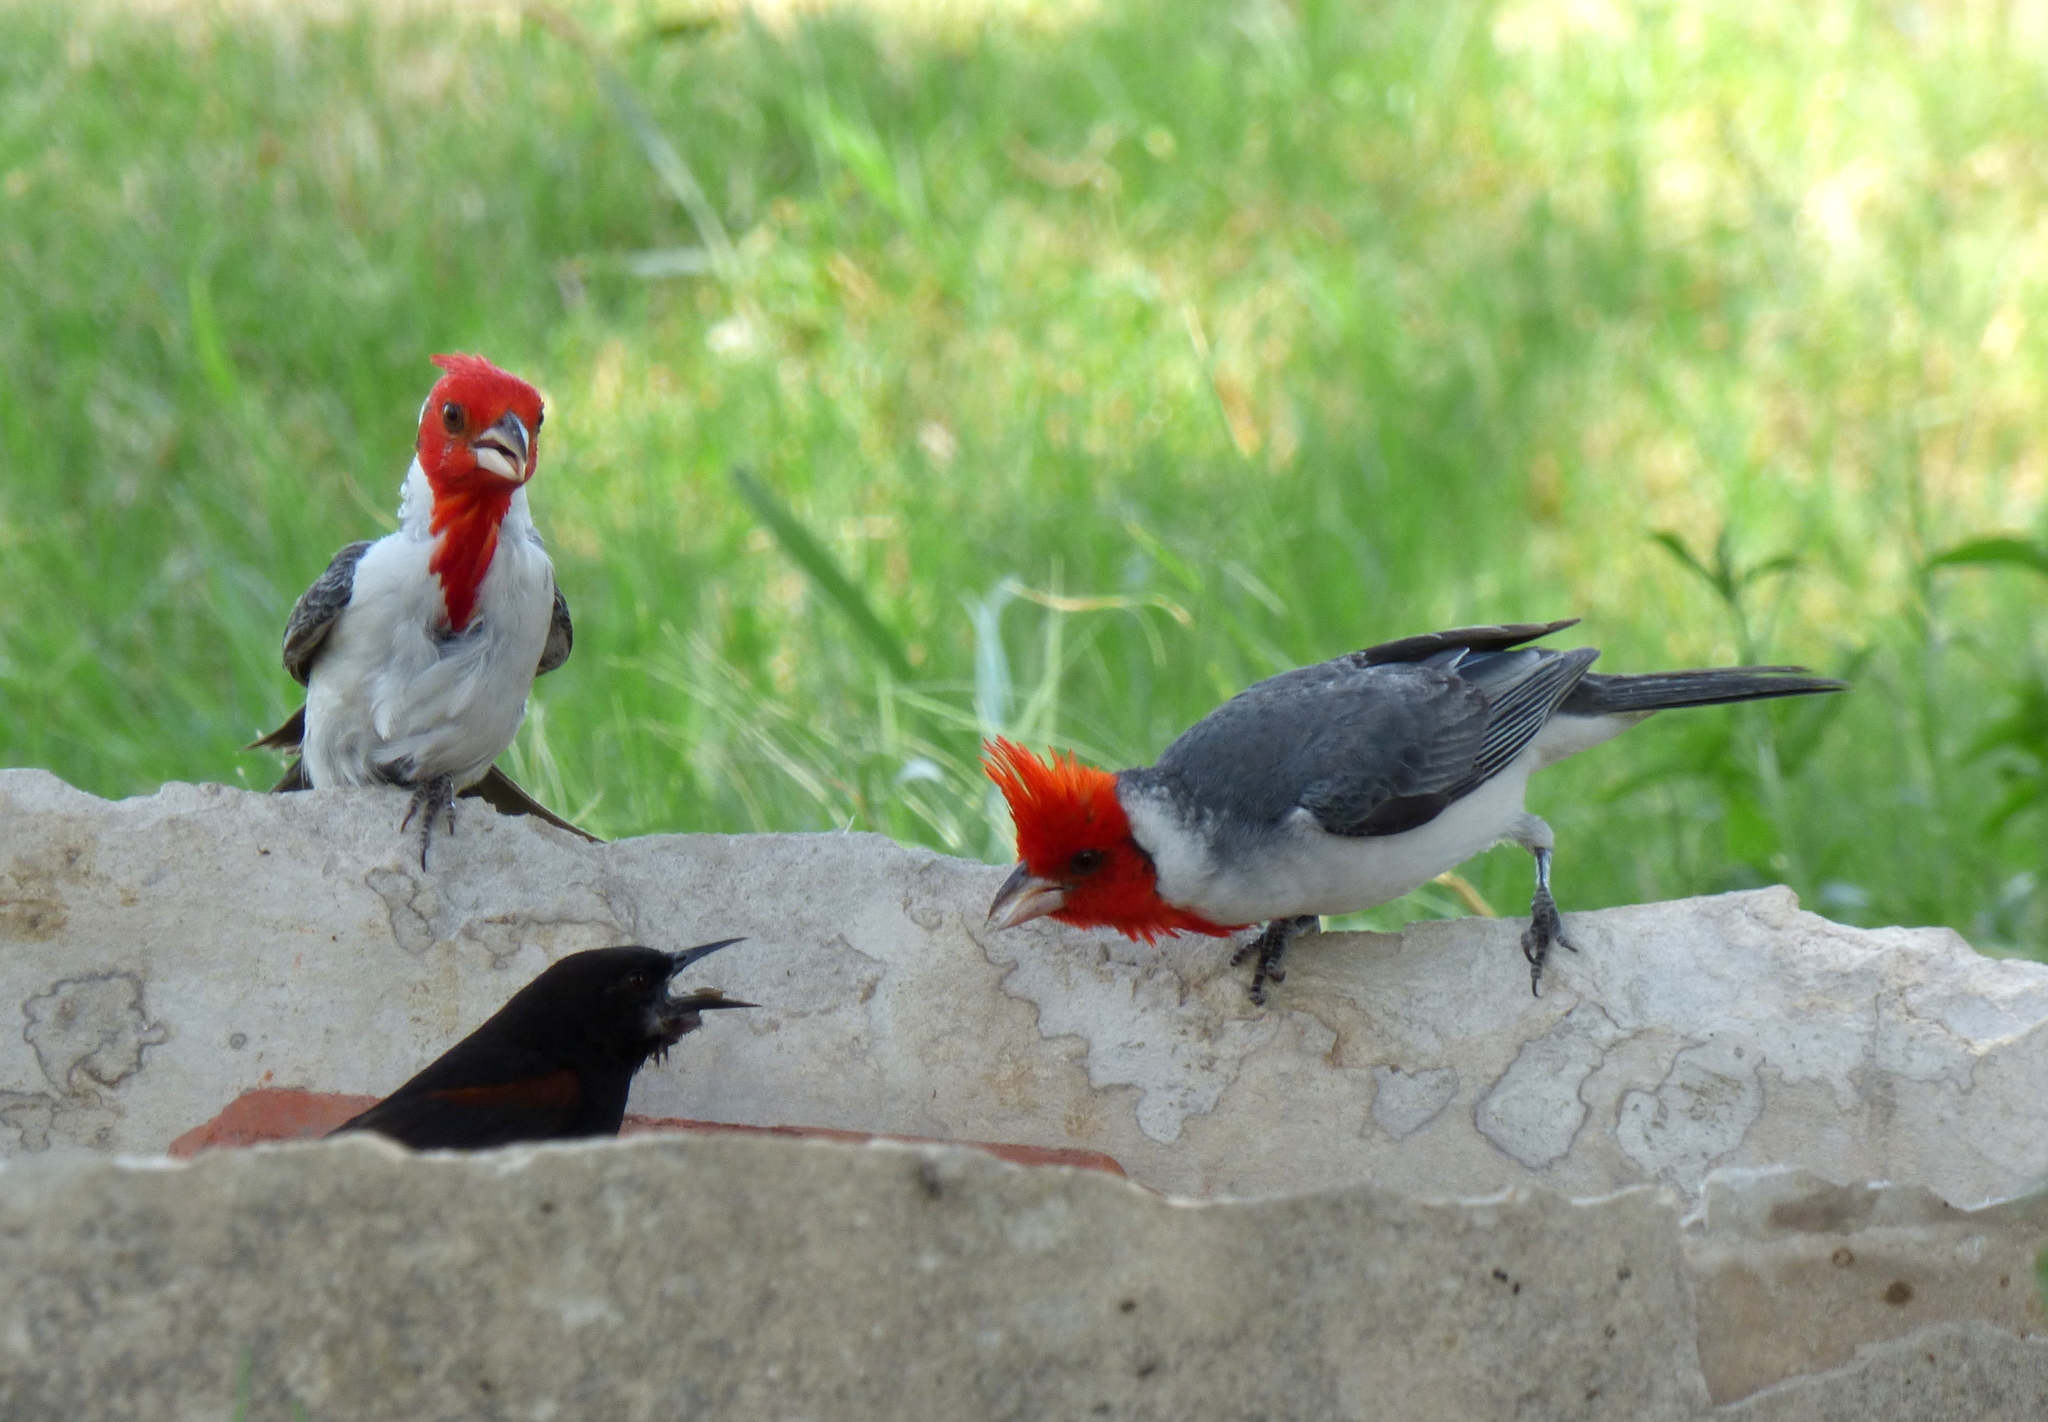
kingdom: Animalia
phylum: Chordata
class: Aves
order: Passeriformes
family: Thraupidae
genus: Paroaria
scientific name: Paroaria coronata
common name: Red-crested cardinal
